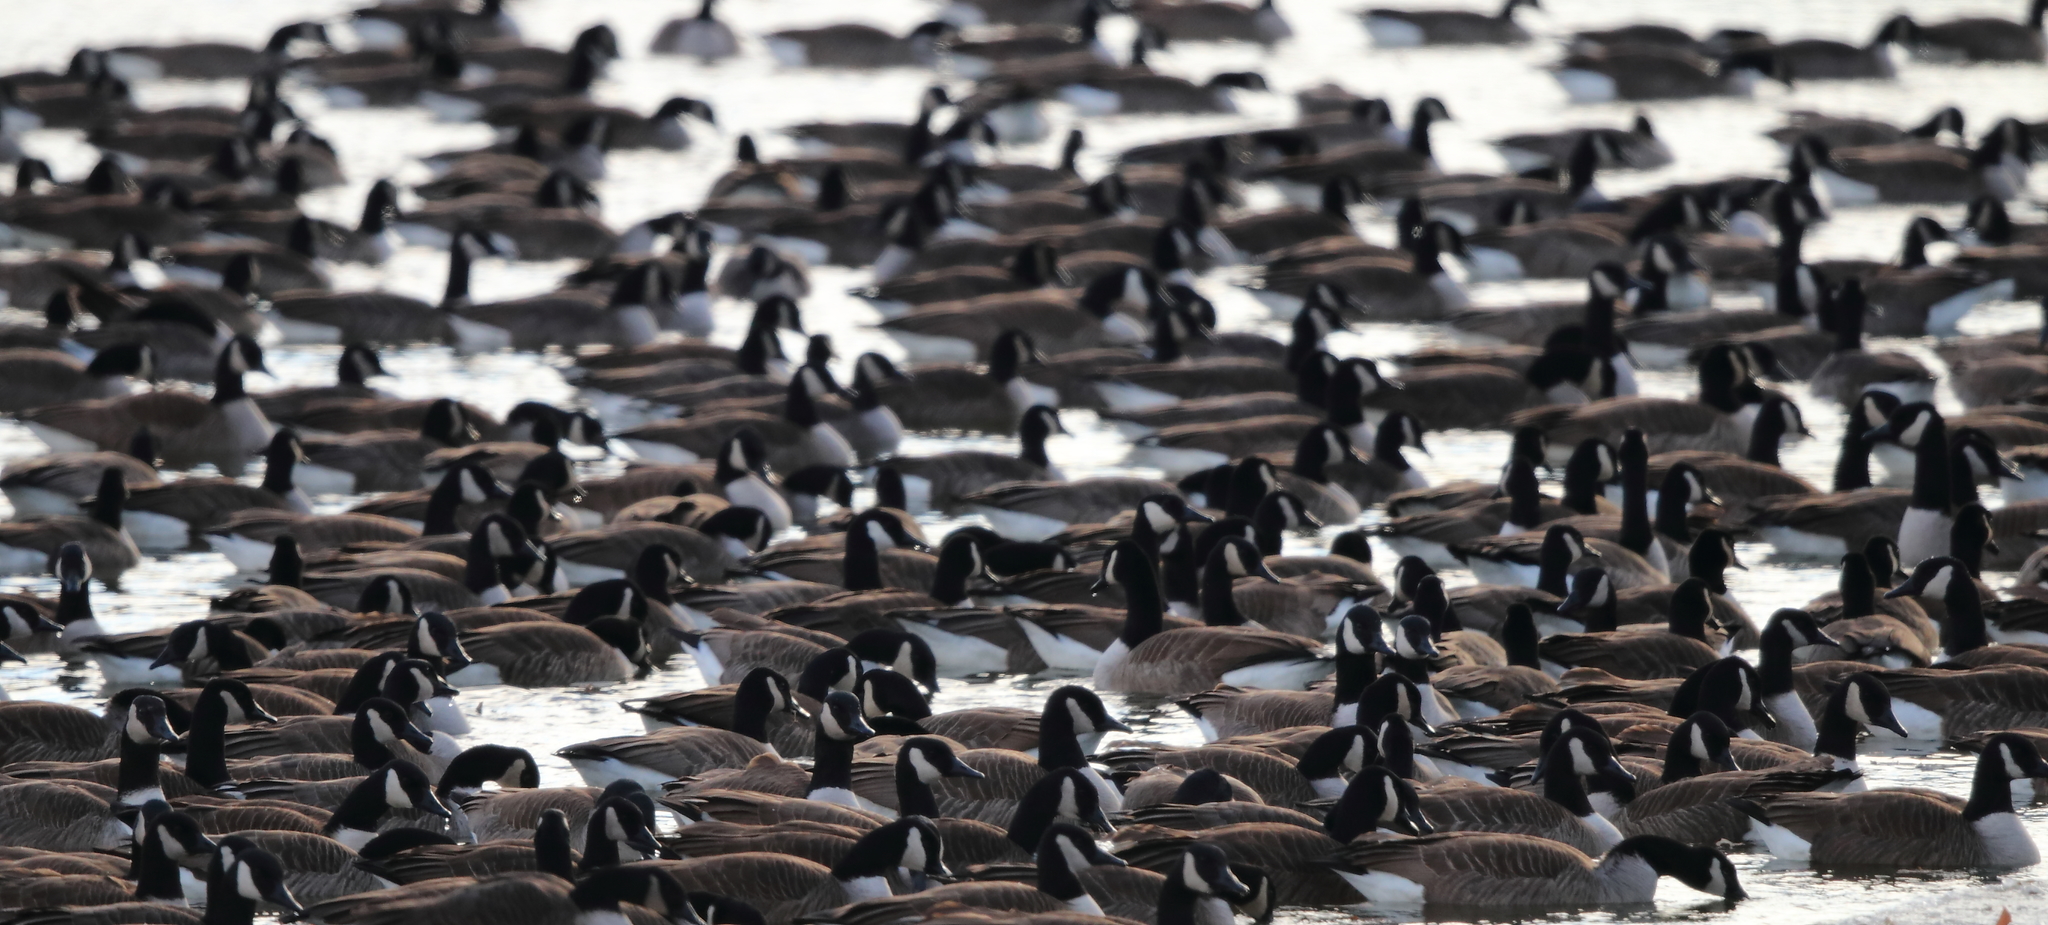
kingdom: Animalia
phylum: Chordata
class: Aves
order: Anseriformes
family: Anatidae
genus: Branta
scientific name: Branta canadensis
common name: Canada goose
